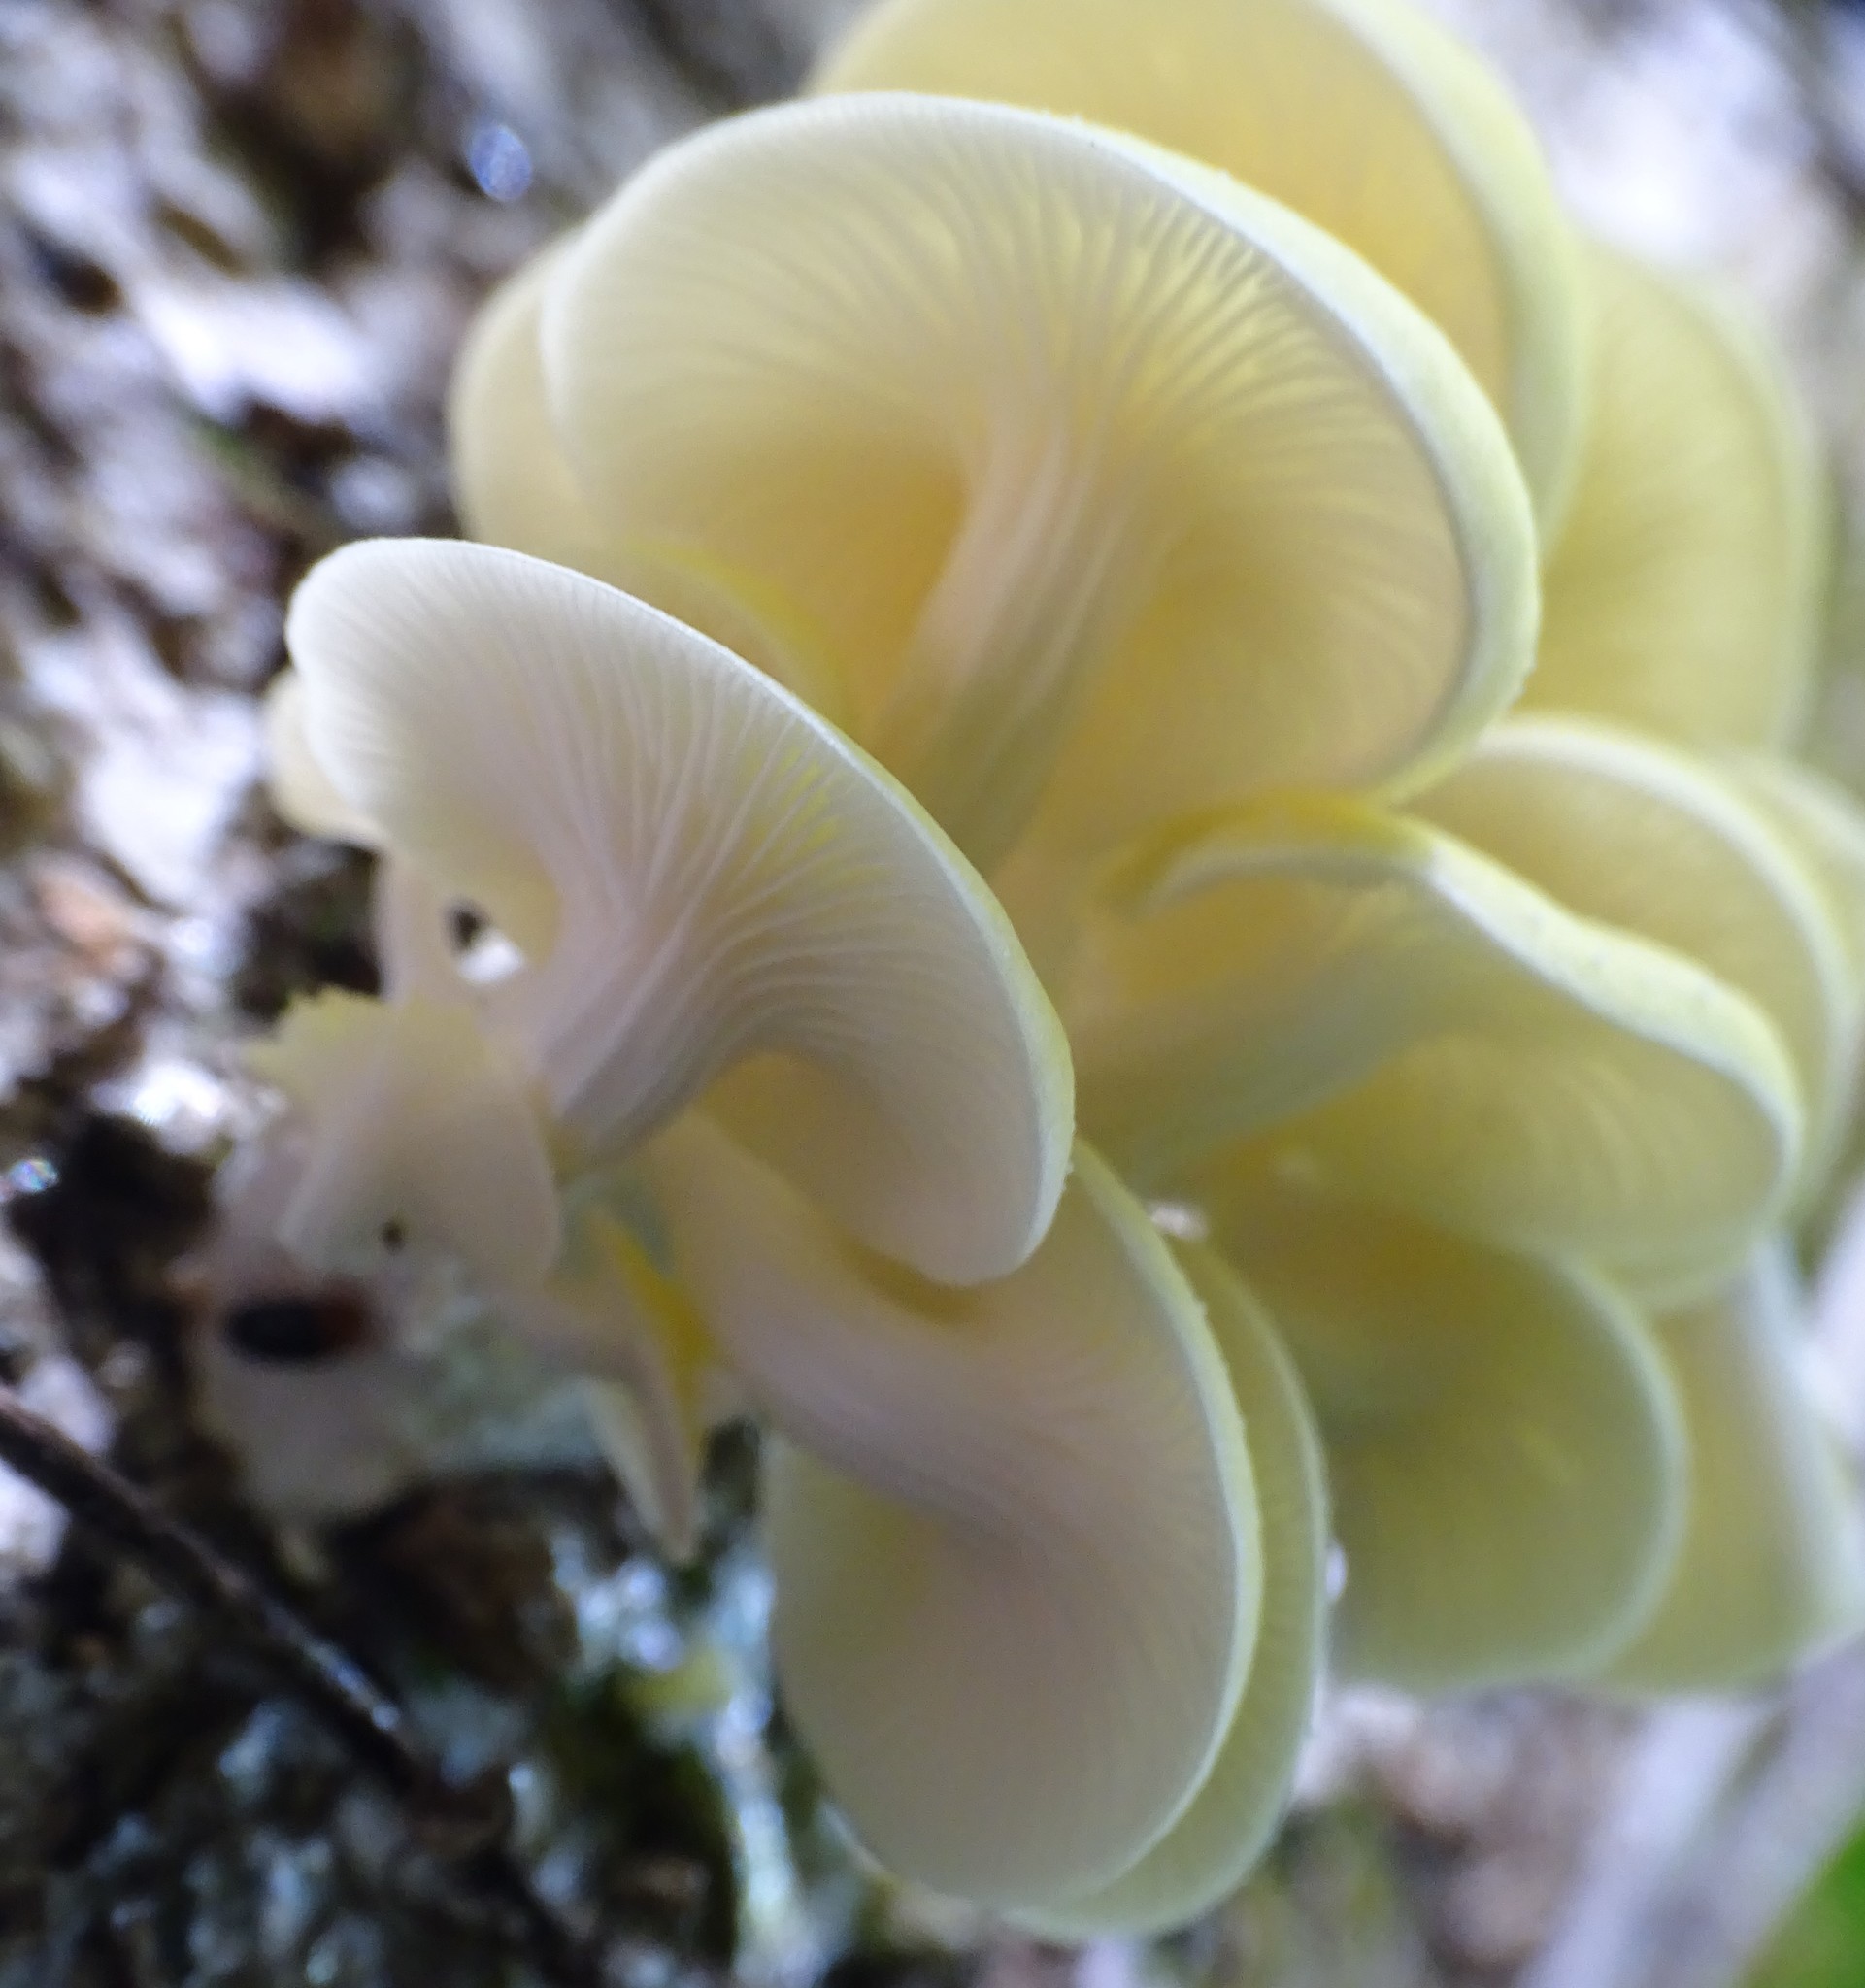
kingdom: Fungi
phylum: Basidiomycota
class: Agaricomycetes
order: Agaricales
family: Pleurotaceae
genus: Pleurotus
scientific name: Pleurotus citrinopileatus
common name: Golden oyster mushroom
